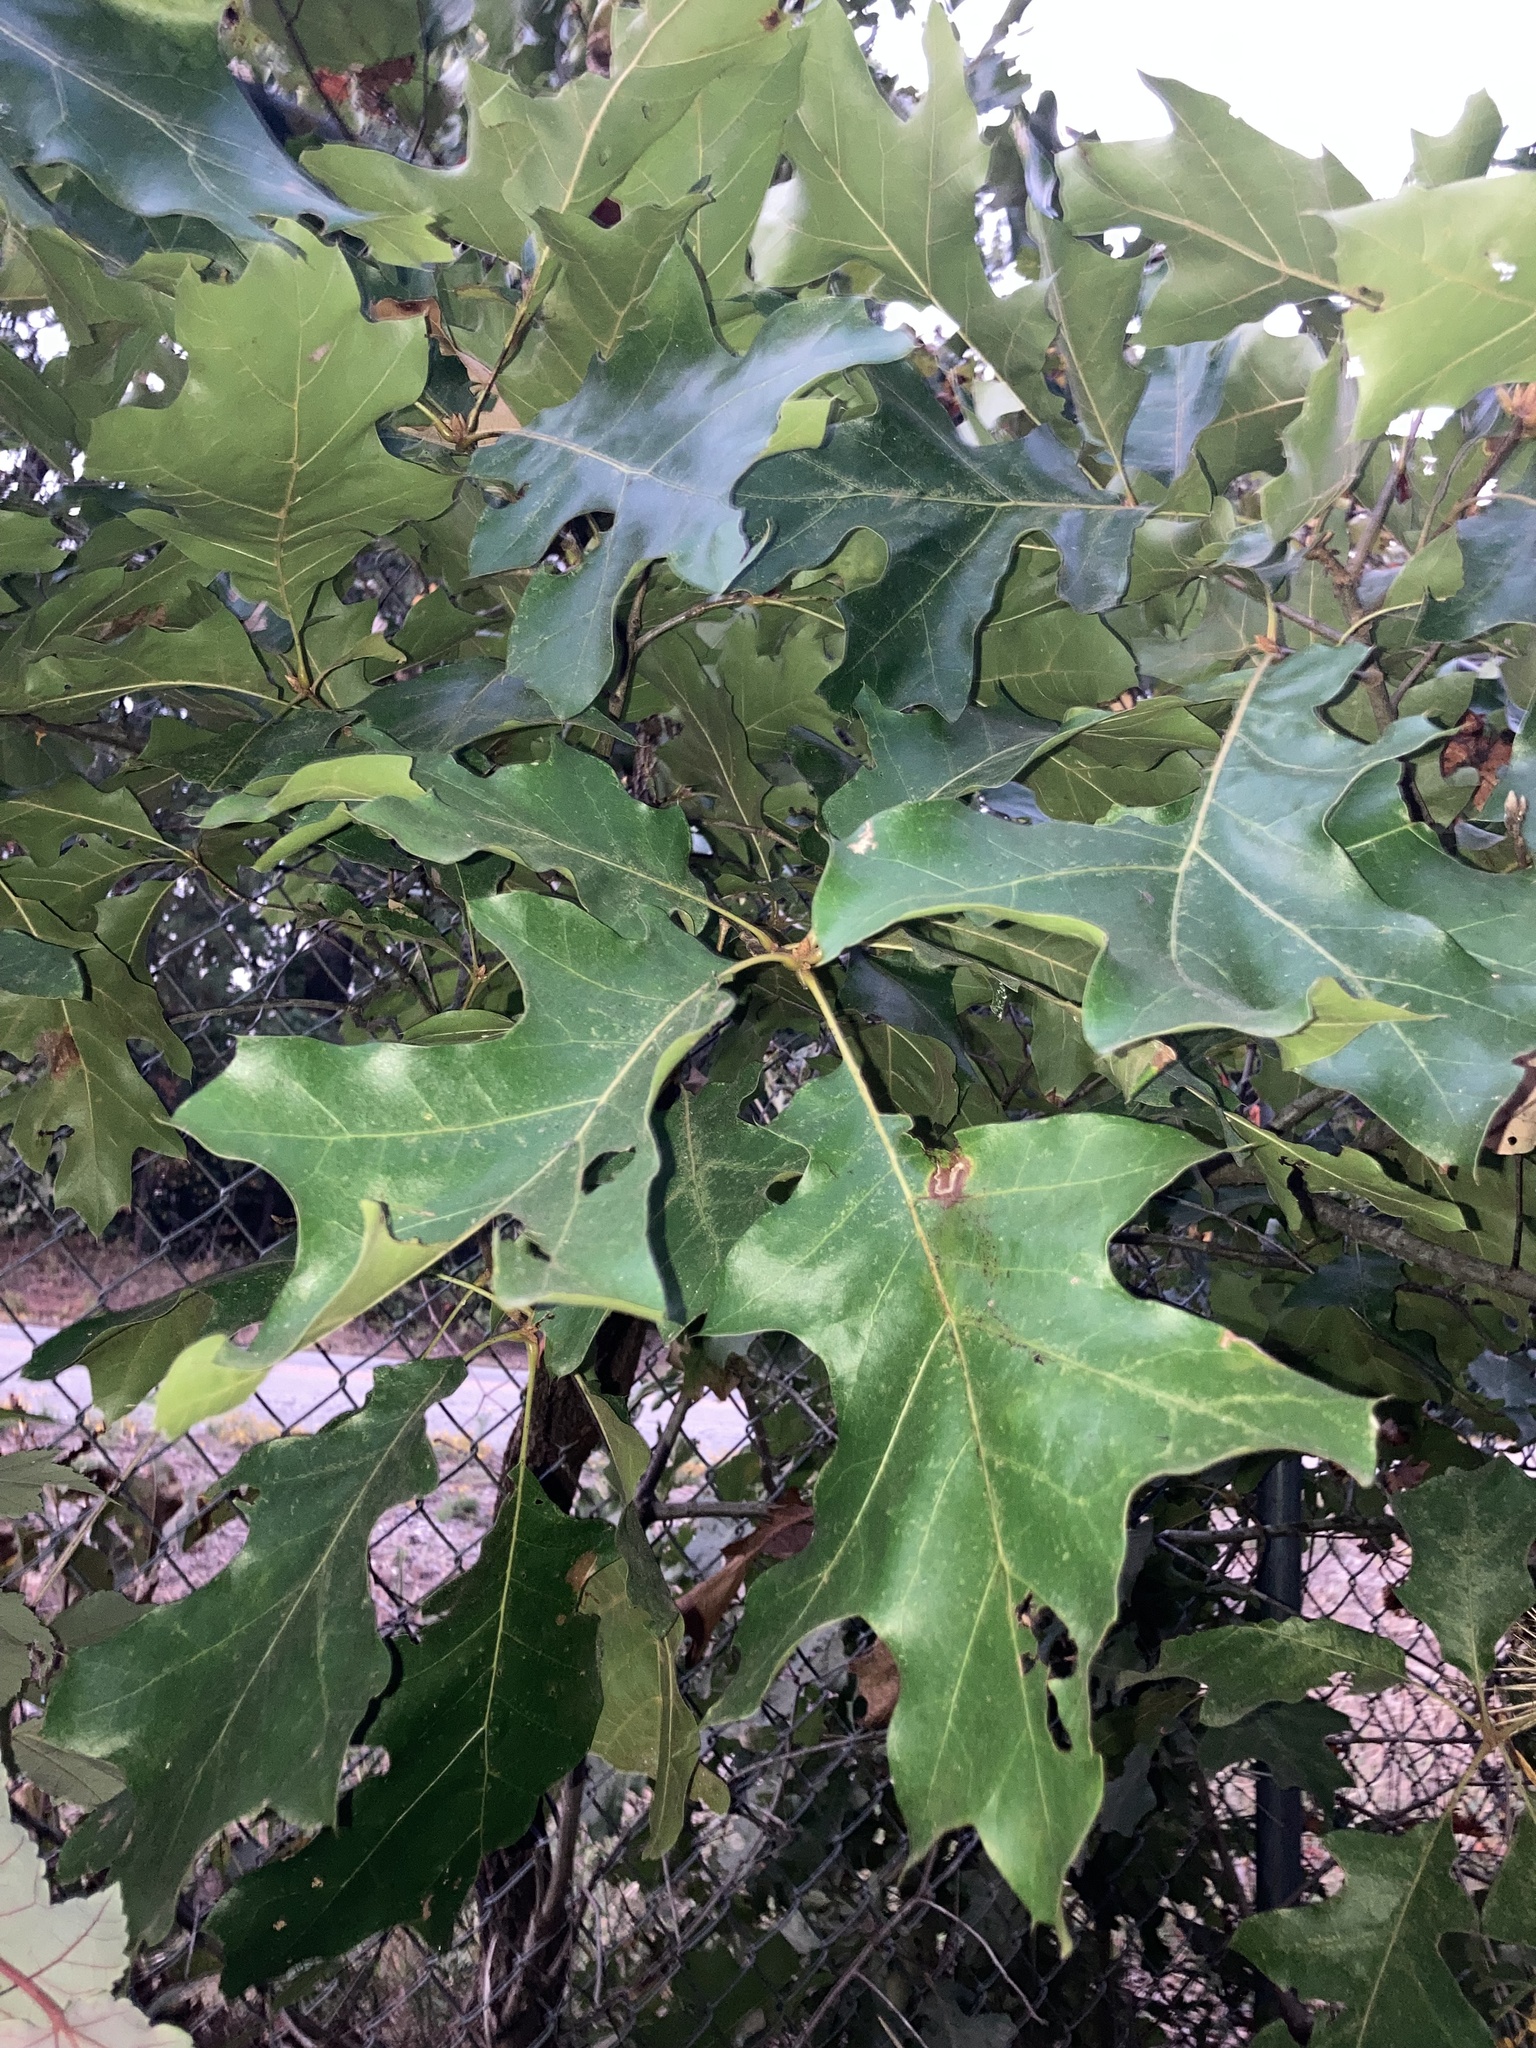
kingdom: Plantae
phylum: Tracheophyta
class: Magnoliopsida
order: Fagales
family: Fagaceae
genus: Quercus
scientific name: Quercus velutina
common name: Black oak
